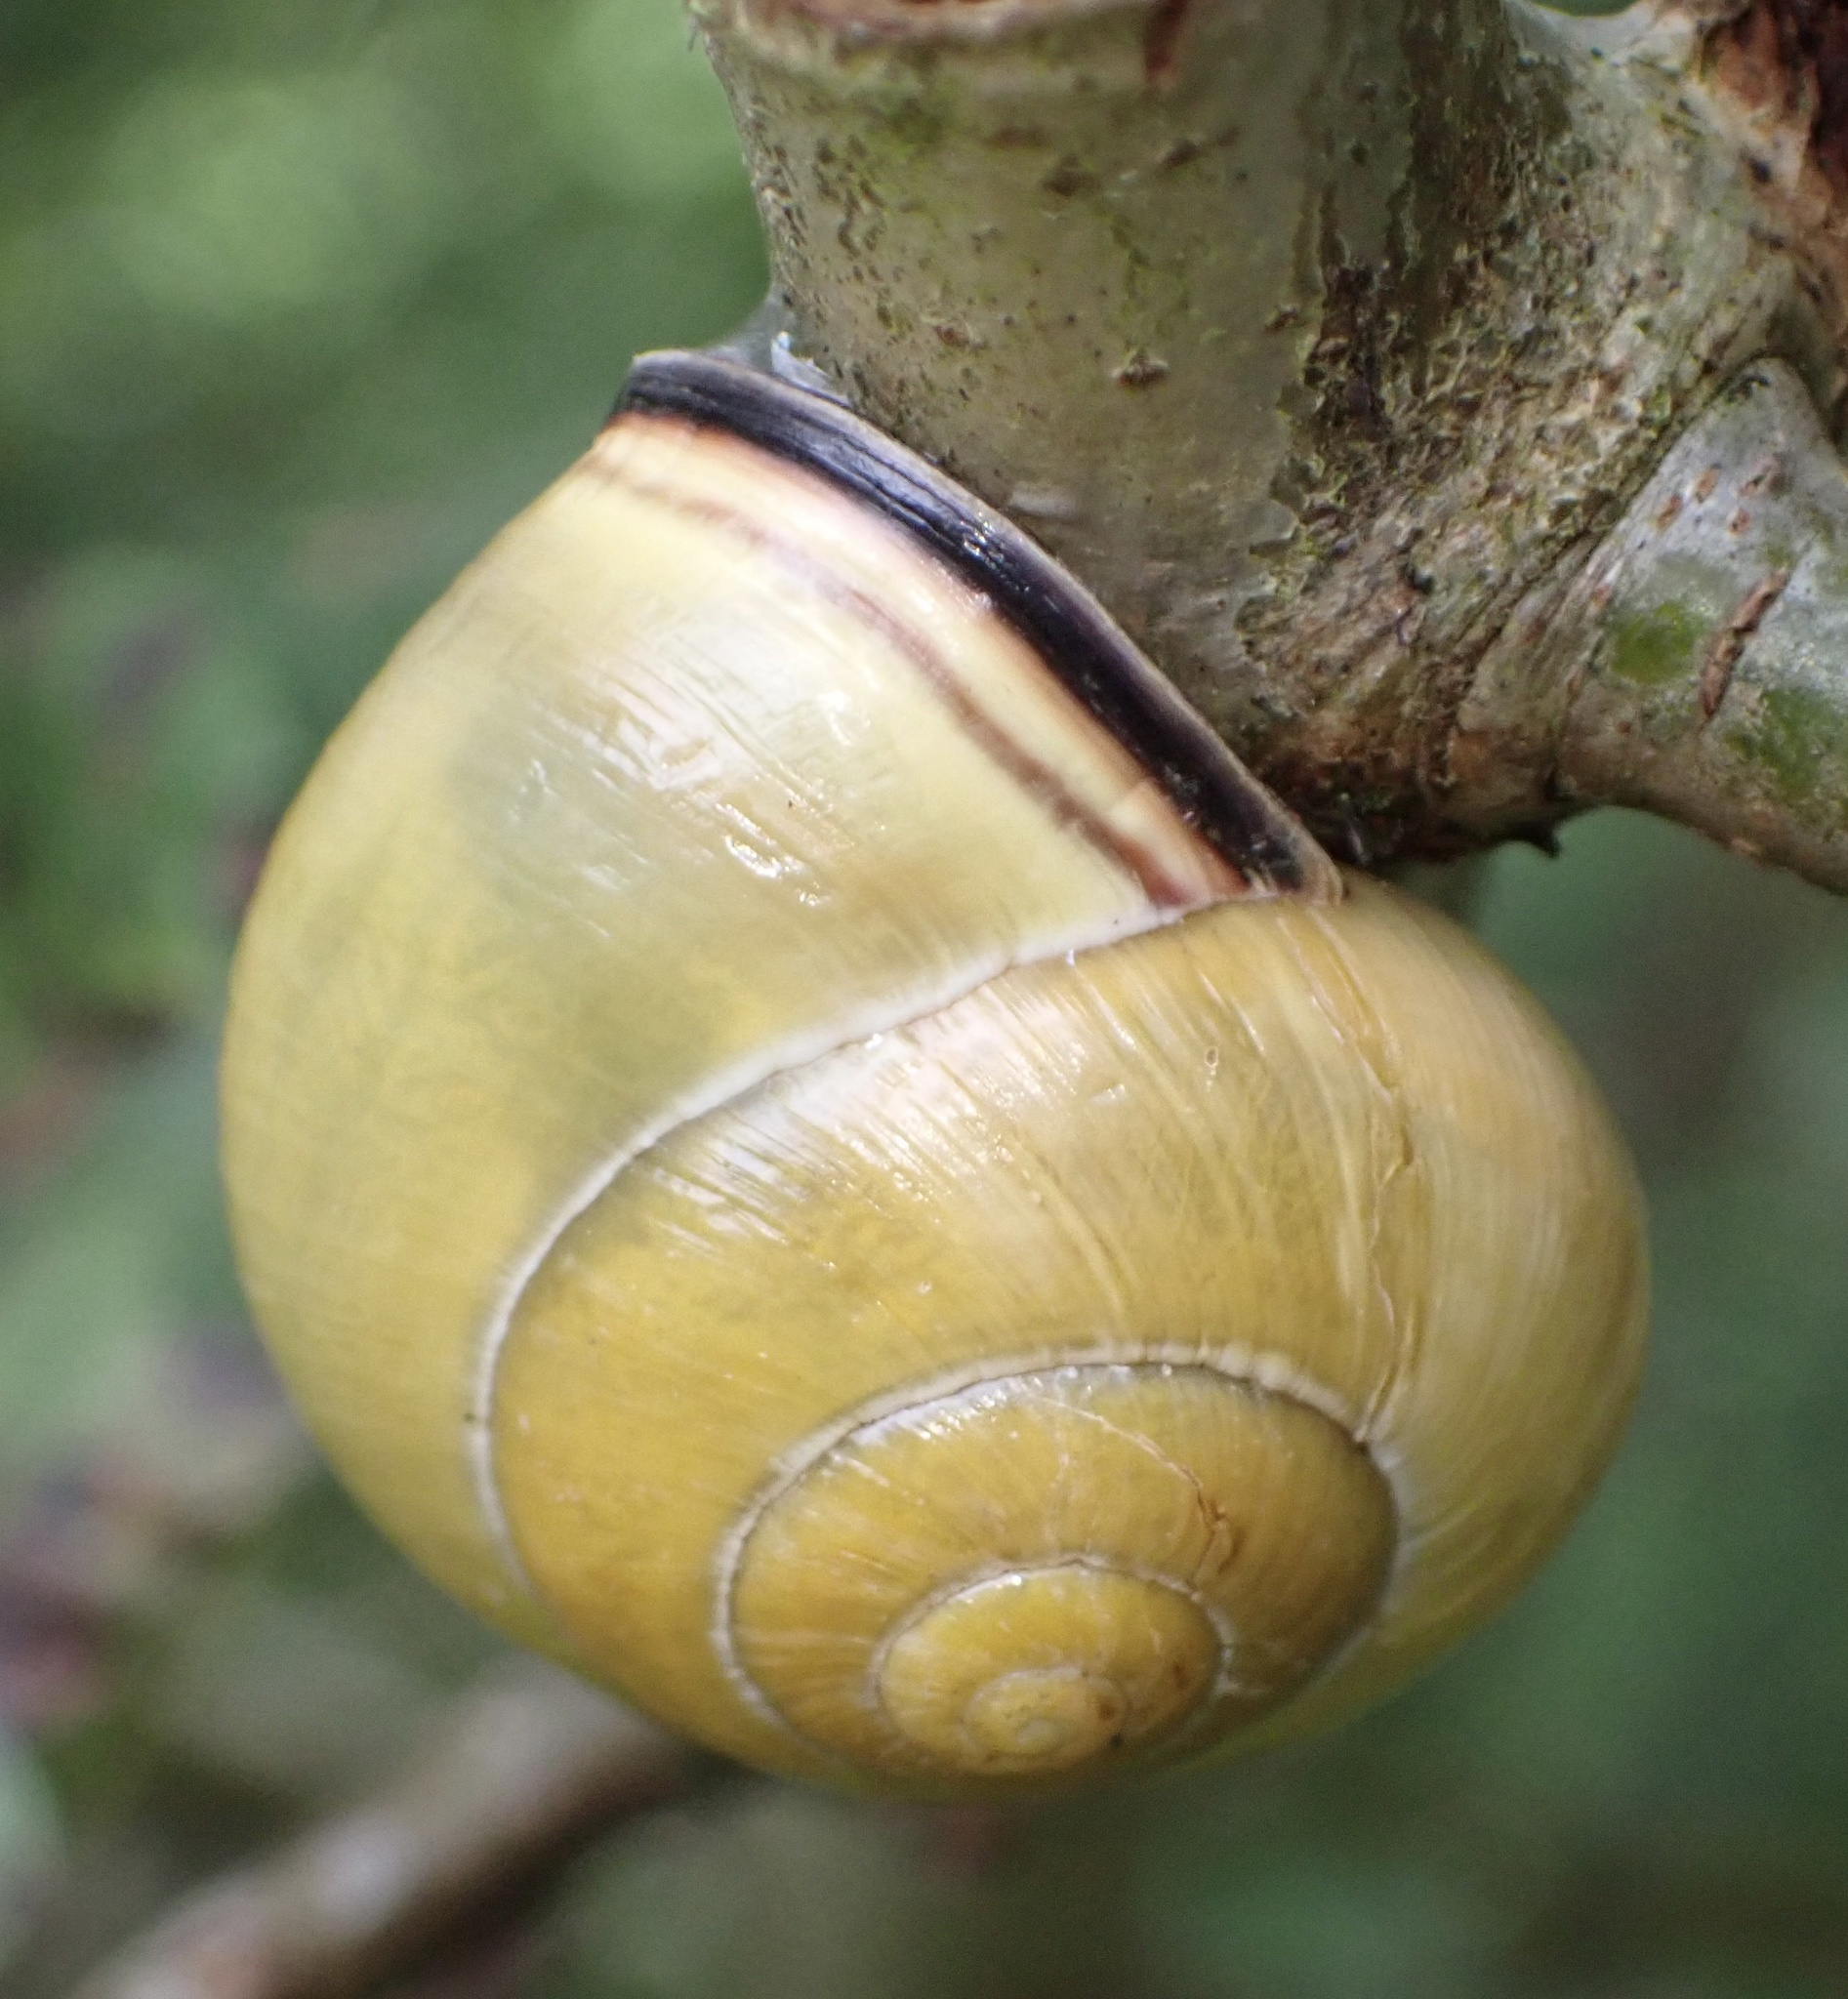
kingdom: Animalia
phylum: Mollusca
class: Gastropoda
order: Stylommatophora
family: Helicidae
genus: Cepaea
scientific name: Cepaea nemoralis
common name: Grovesnail
